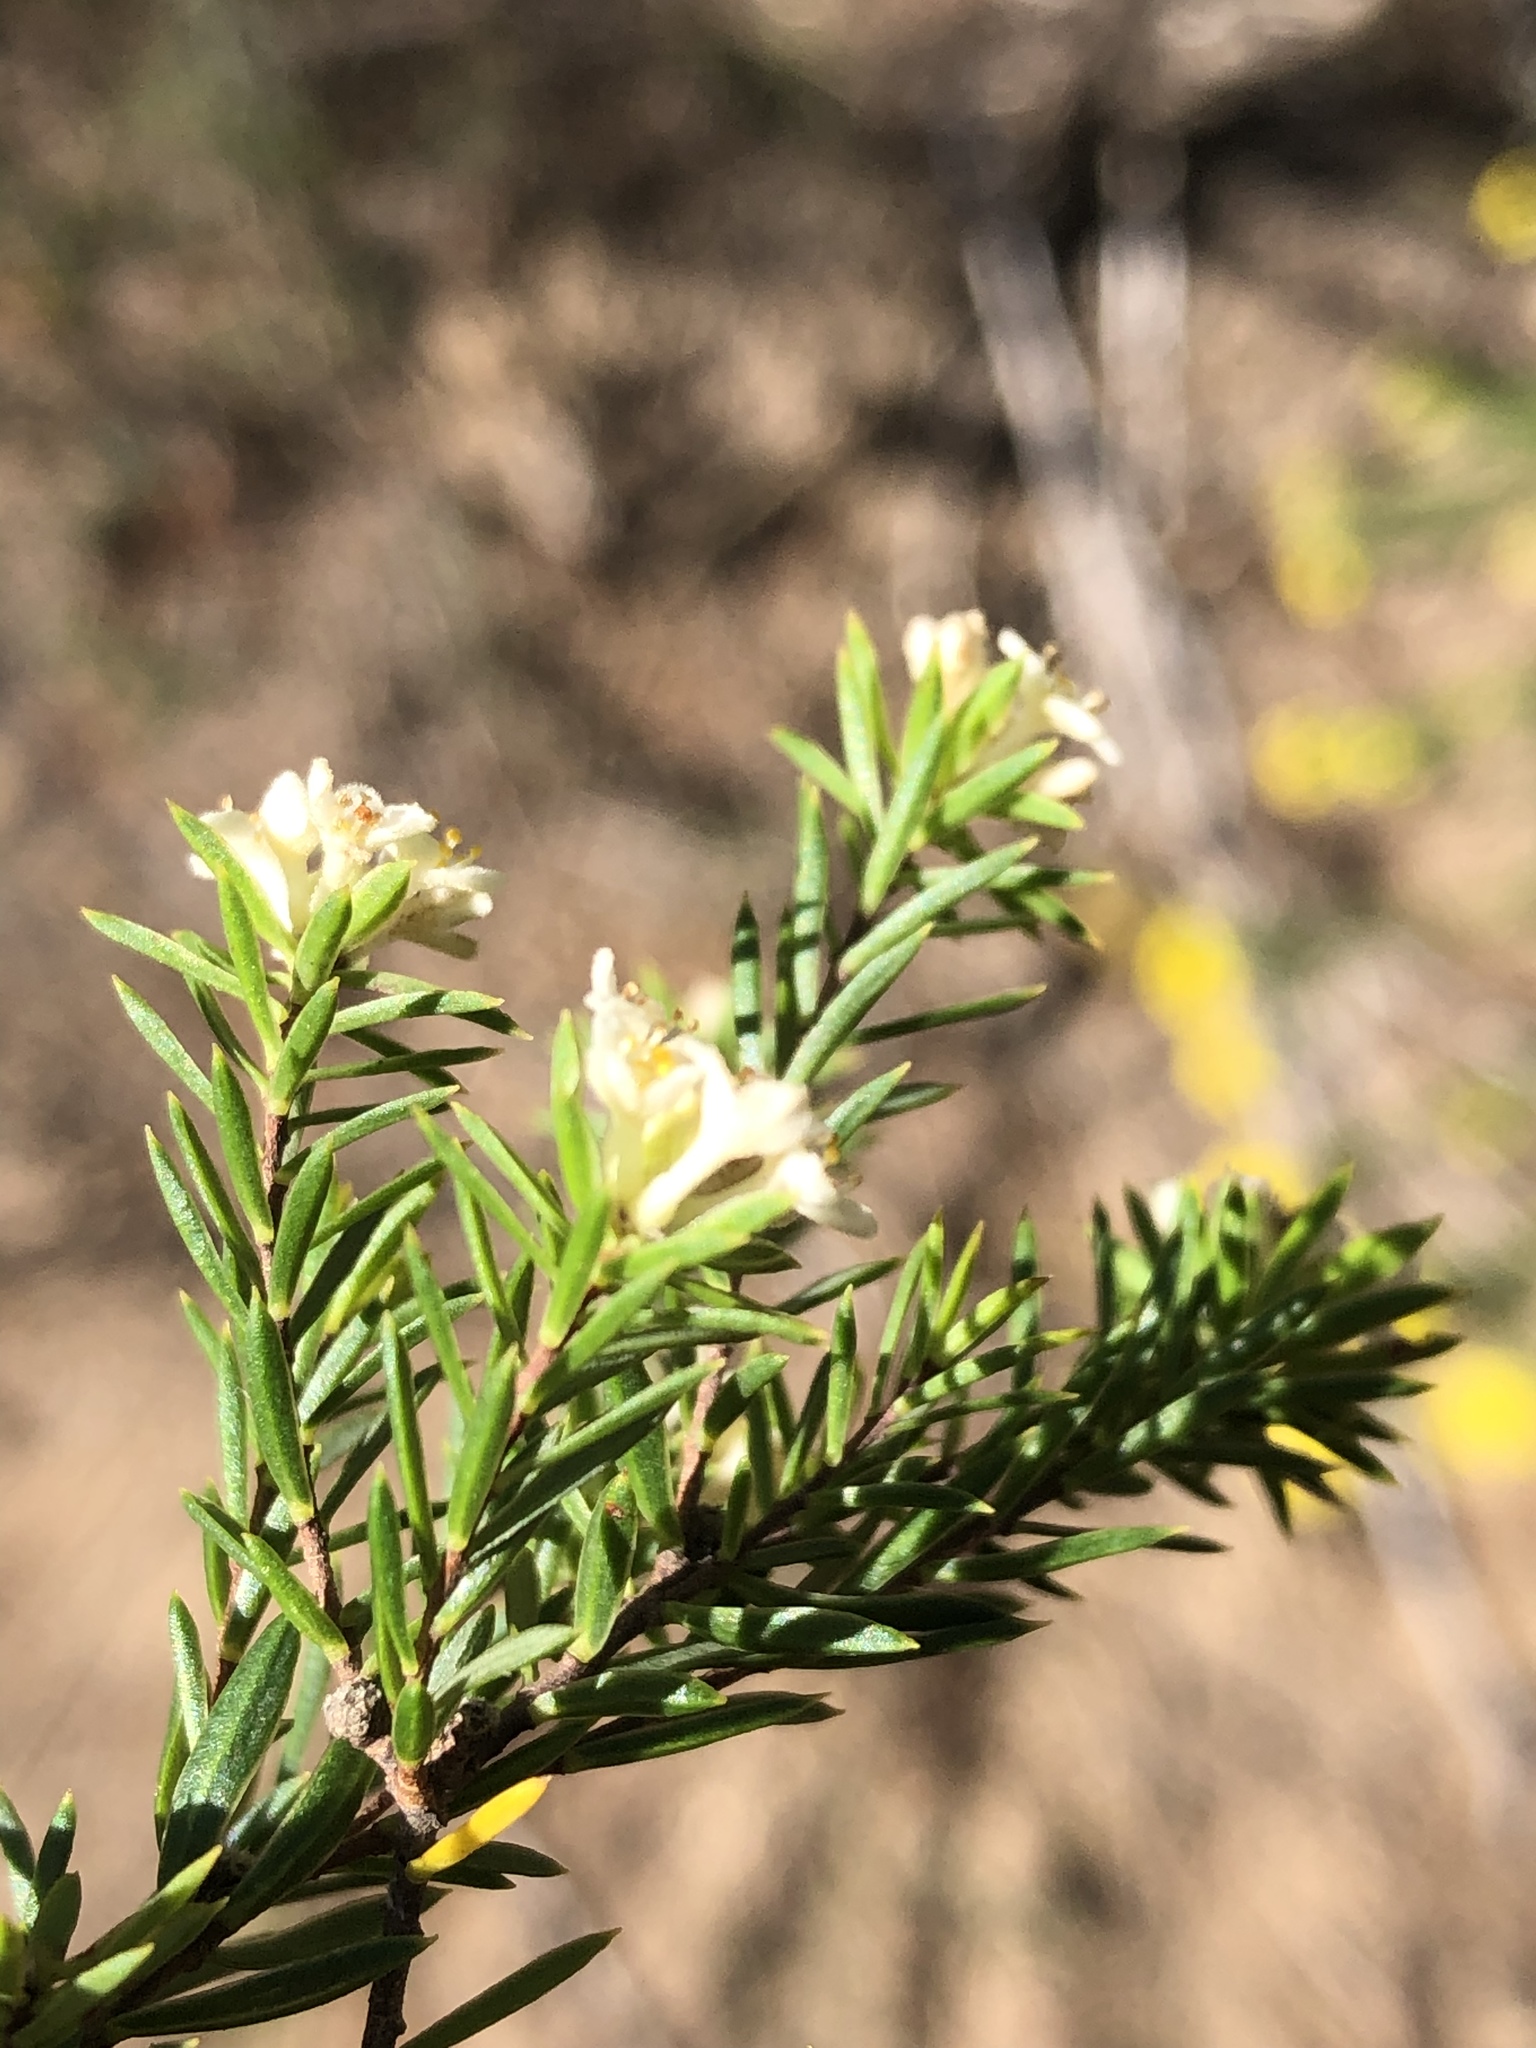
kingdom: Plantae
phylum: Tracheophyta
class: Magnoliopsida
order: Malvales
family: Thymelaeaceae
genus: Lachnaea
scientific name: Lachnaea diosmoides
